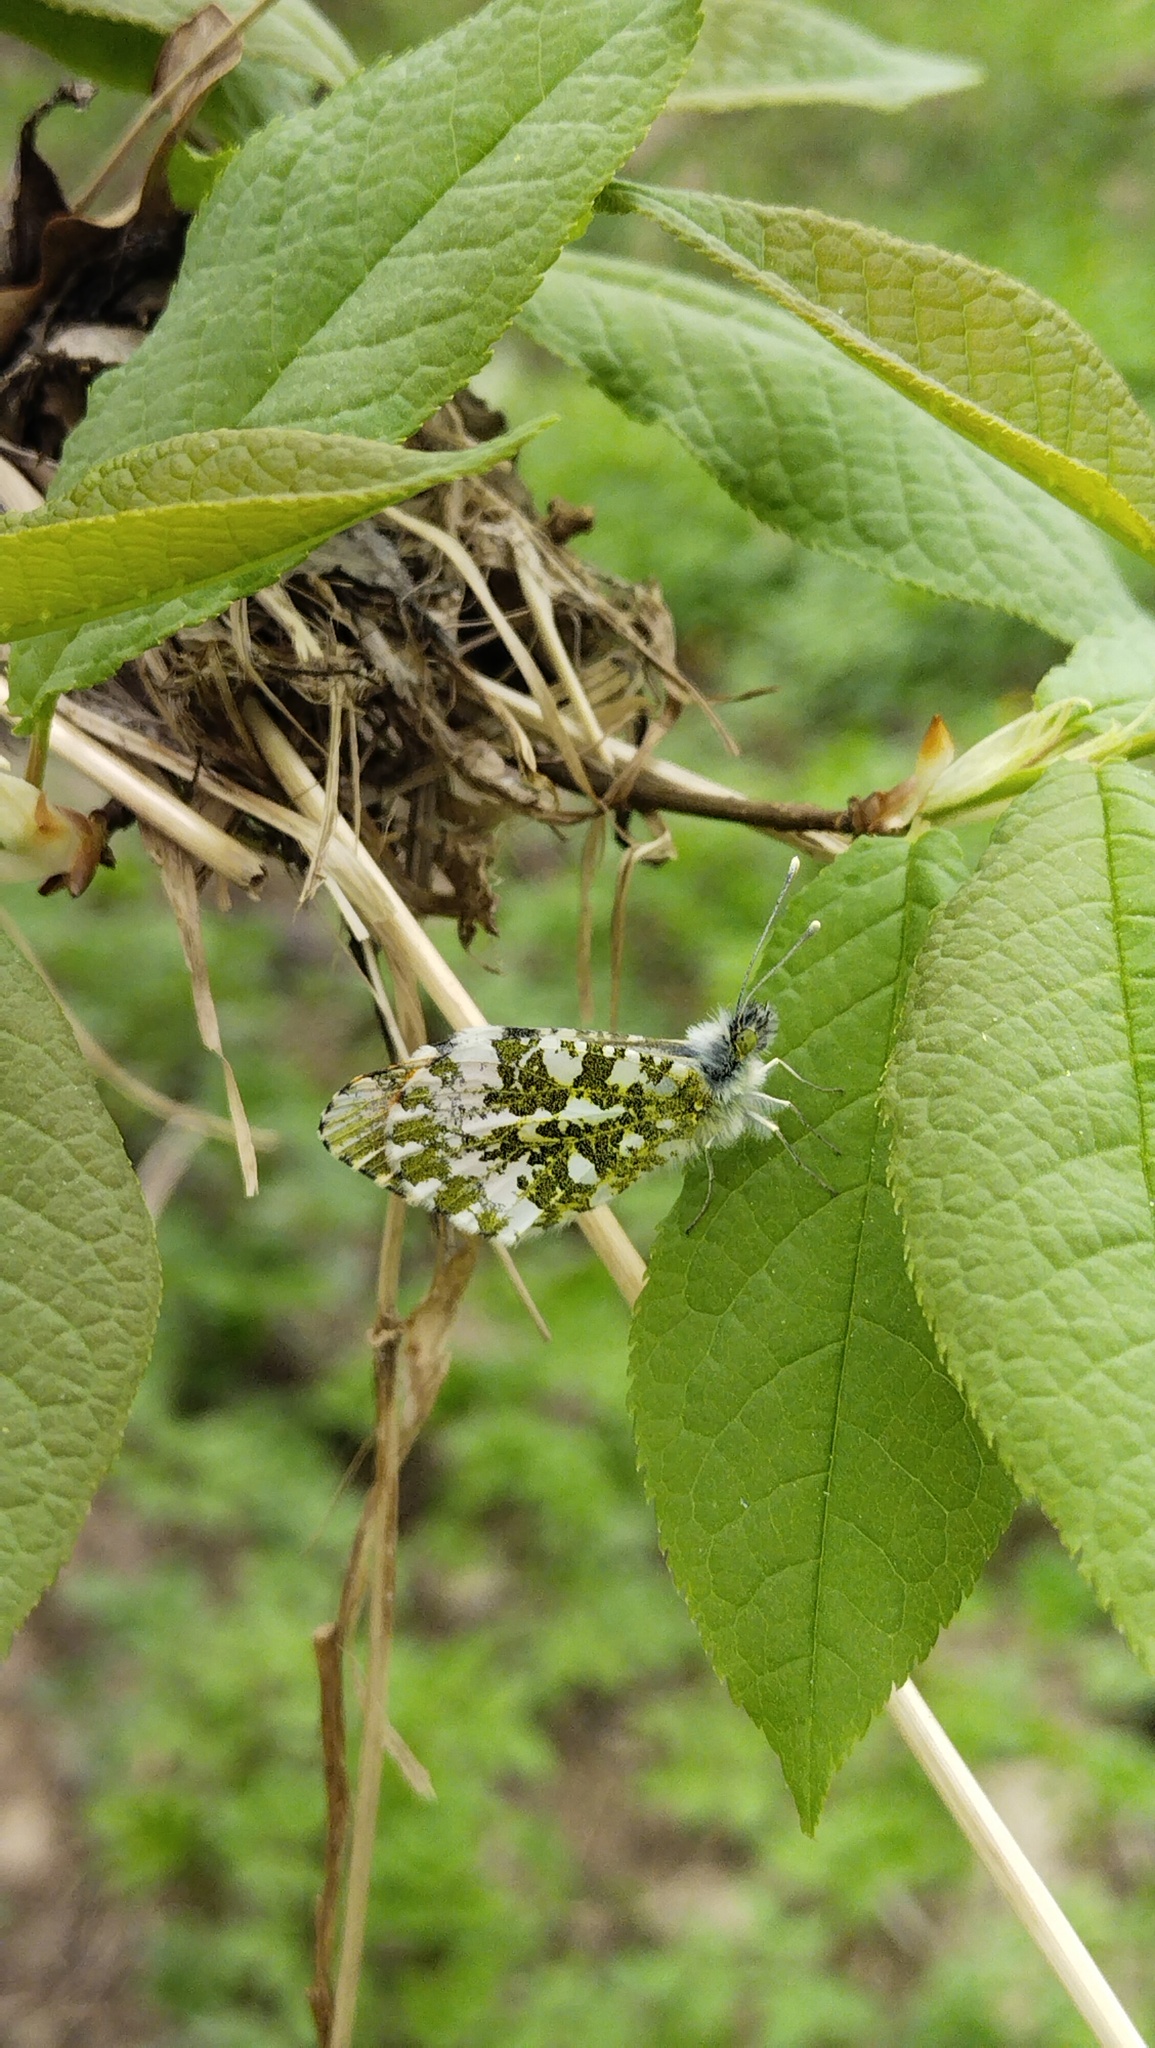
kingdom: Animalia
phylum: Arthropoda
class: Insecta
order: Lepidoptera
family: Pieridae
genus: Anthocharis
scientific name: Anthocharis cardamines
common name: Orange-tip
